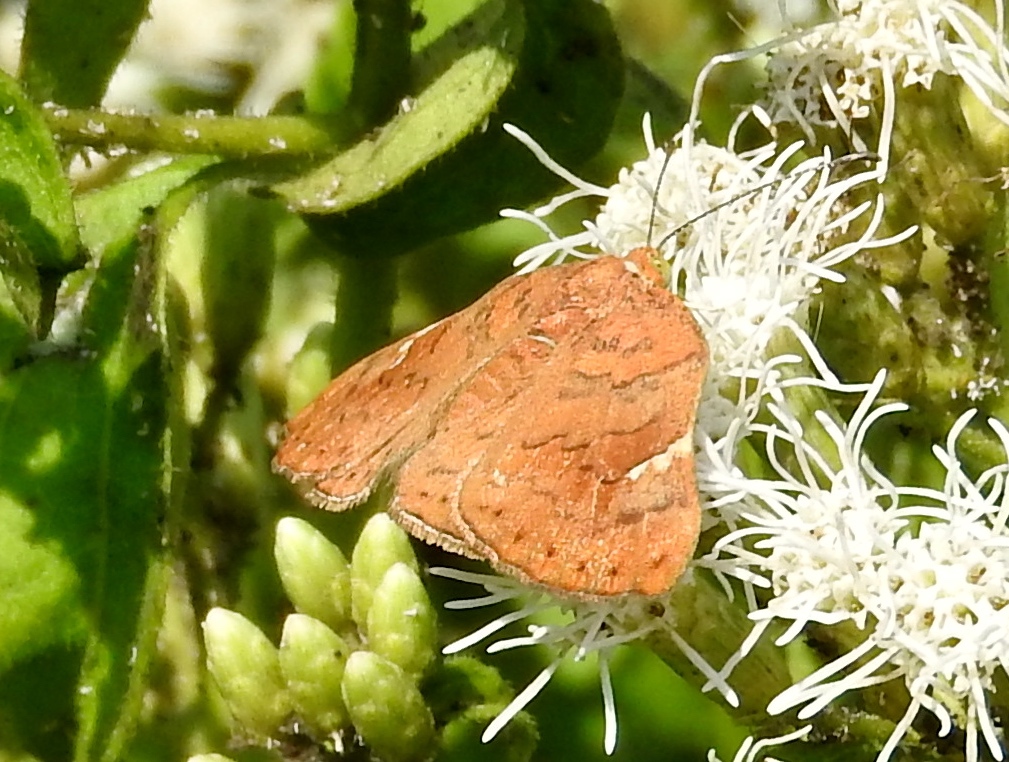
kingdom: Animalia
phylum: Arthropoda
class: Insecta
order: Lepidoptera
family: Riodinidae
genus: Curvie
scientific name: Curvie emesia
